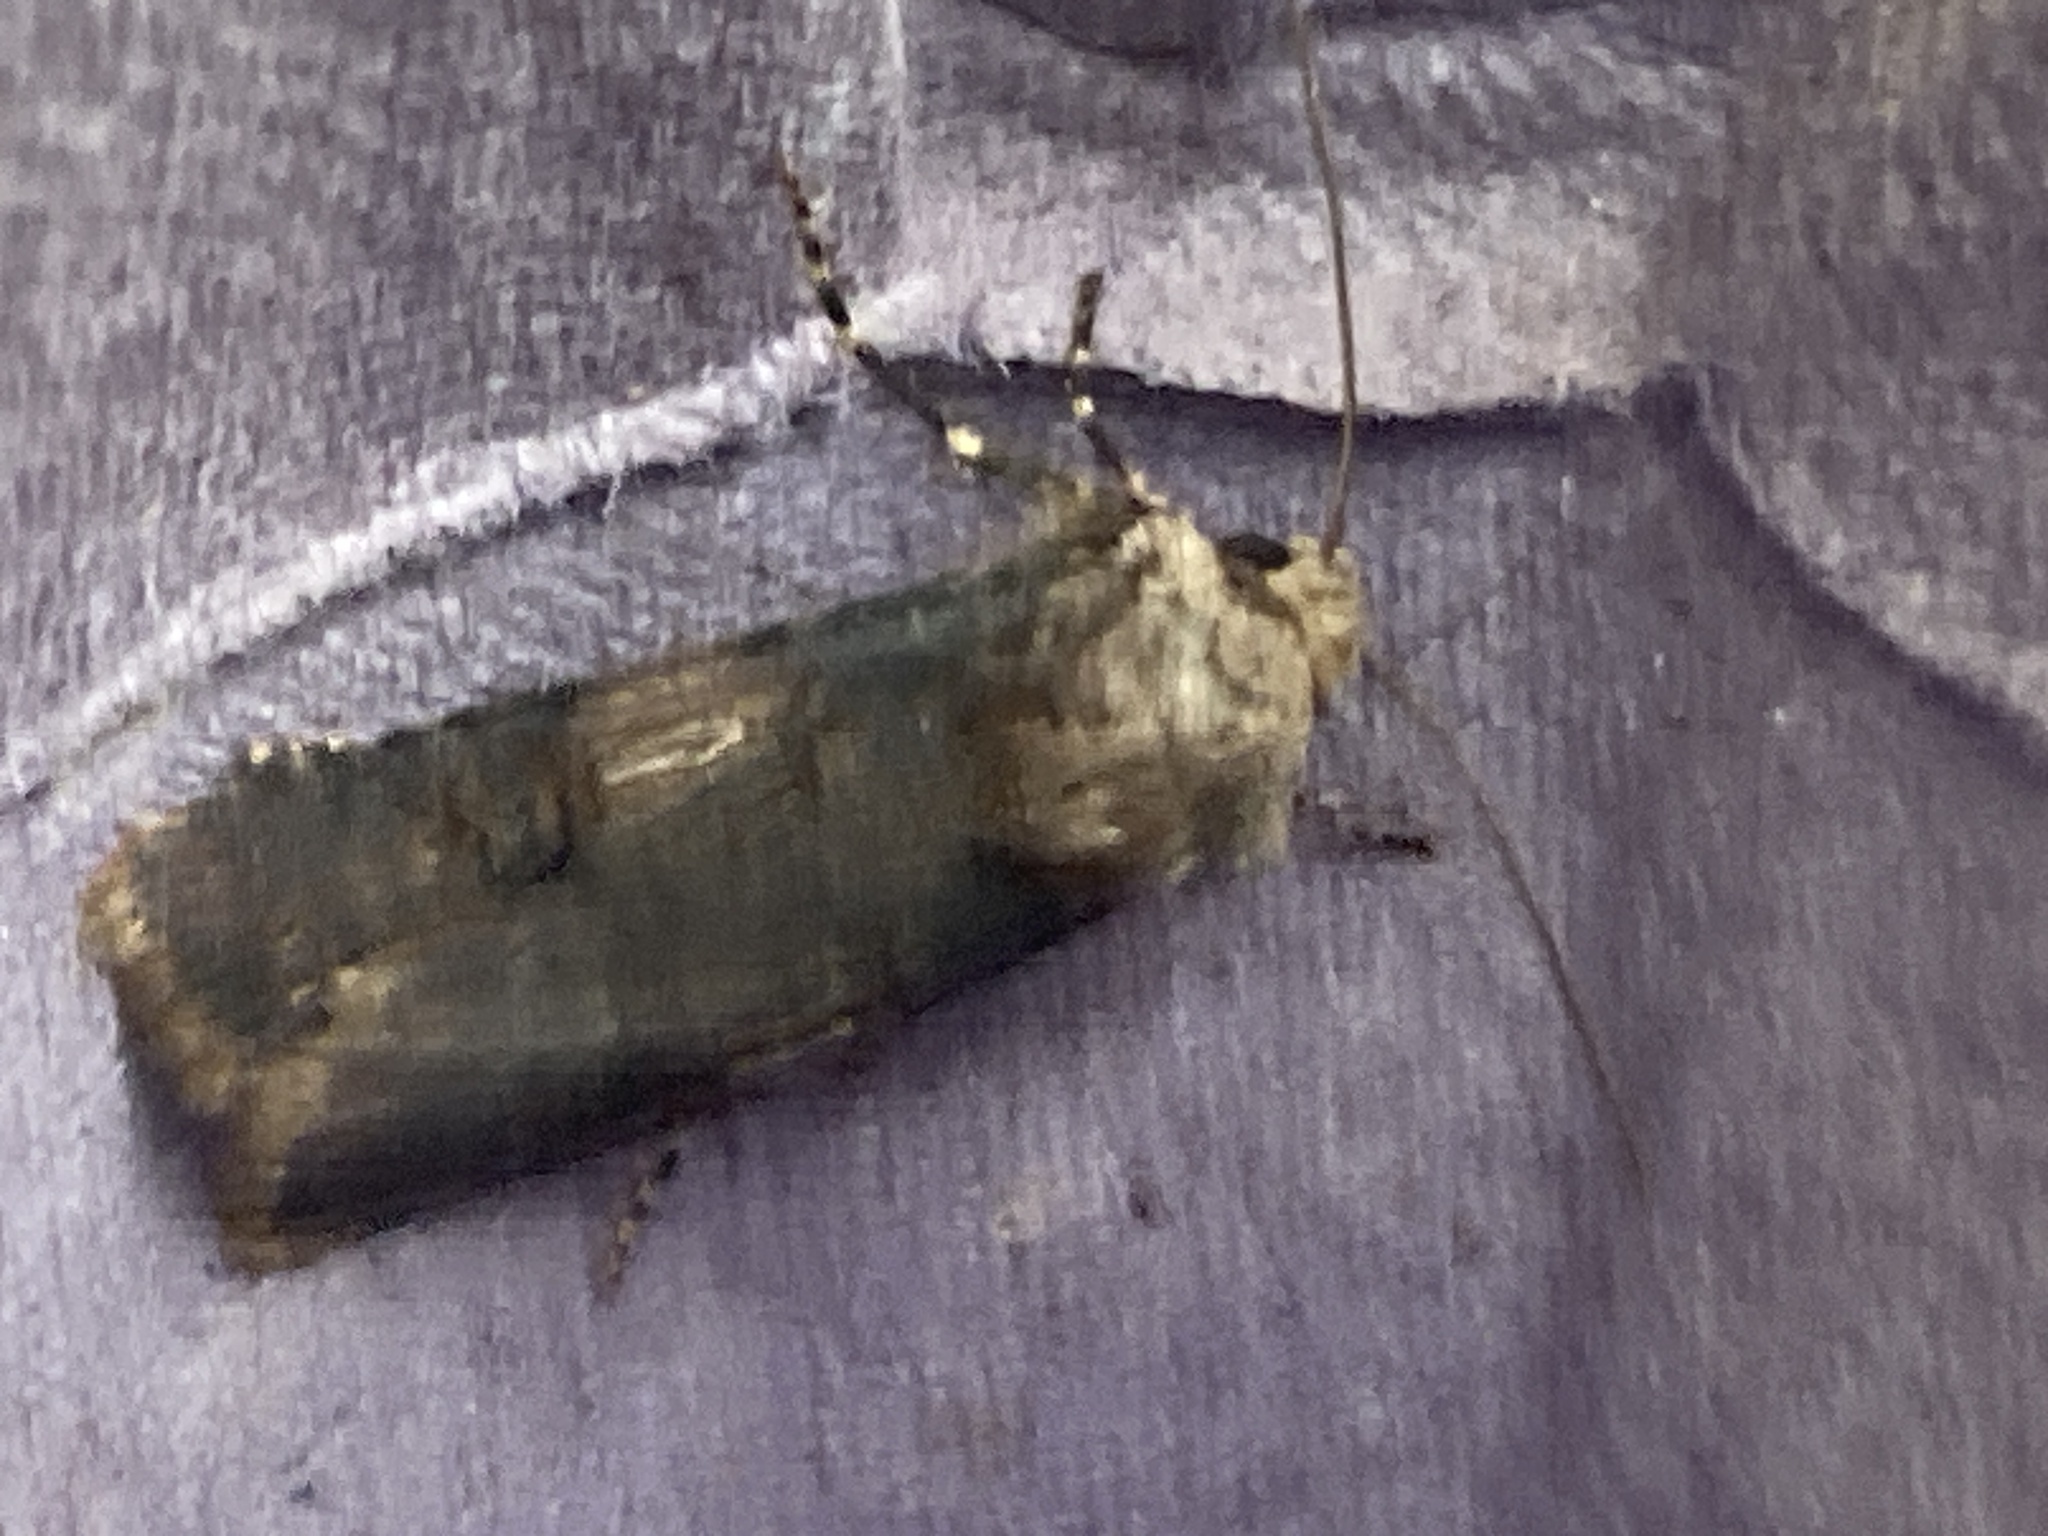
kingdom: Animalia
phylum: Arthropoda
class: Insecta
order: Lepidoptera
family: Noctuidae
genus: Agrotis
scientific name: Agrotis puta
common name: Shuttle-shaped dart
